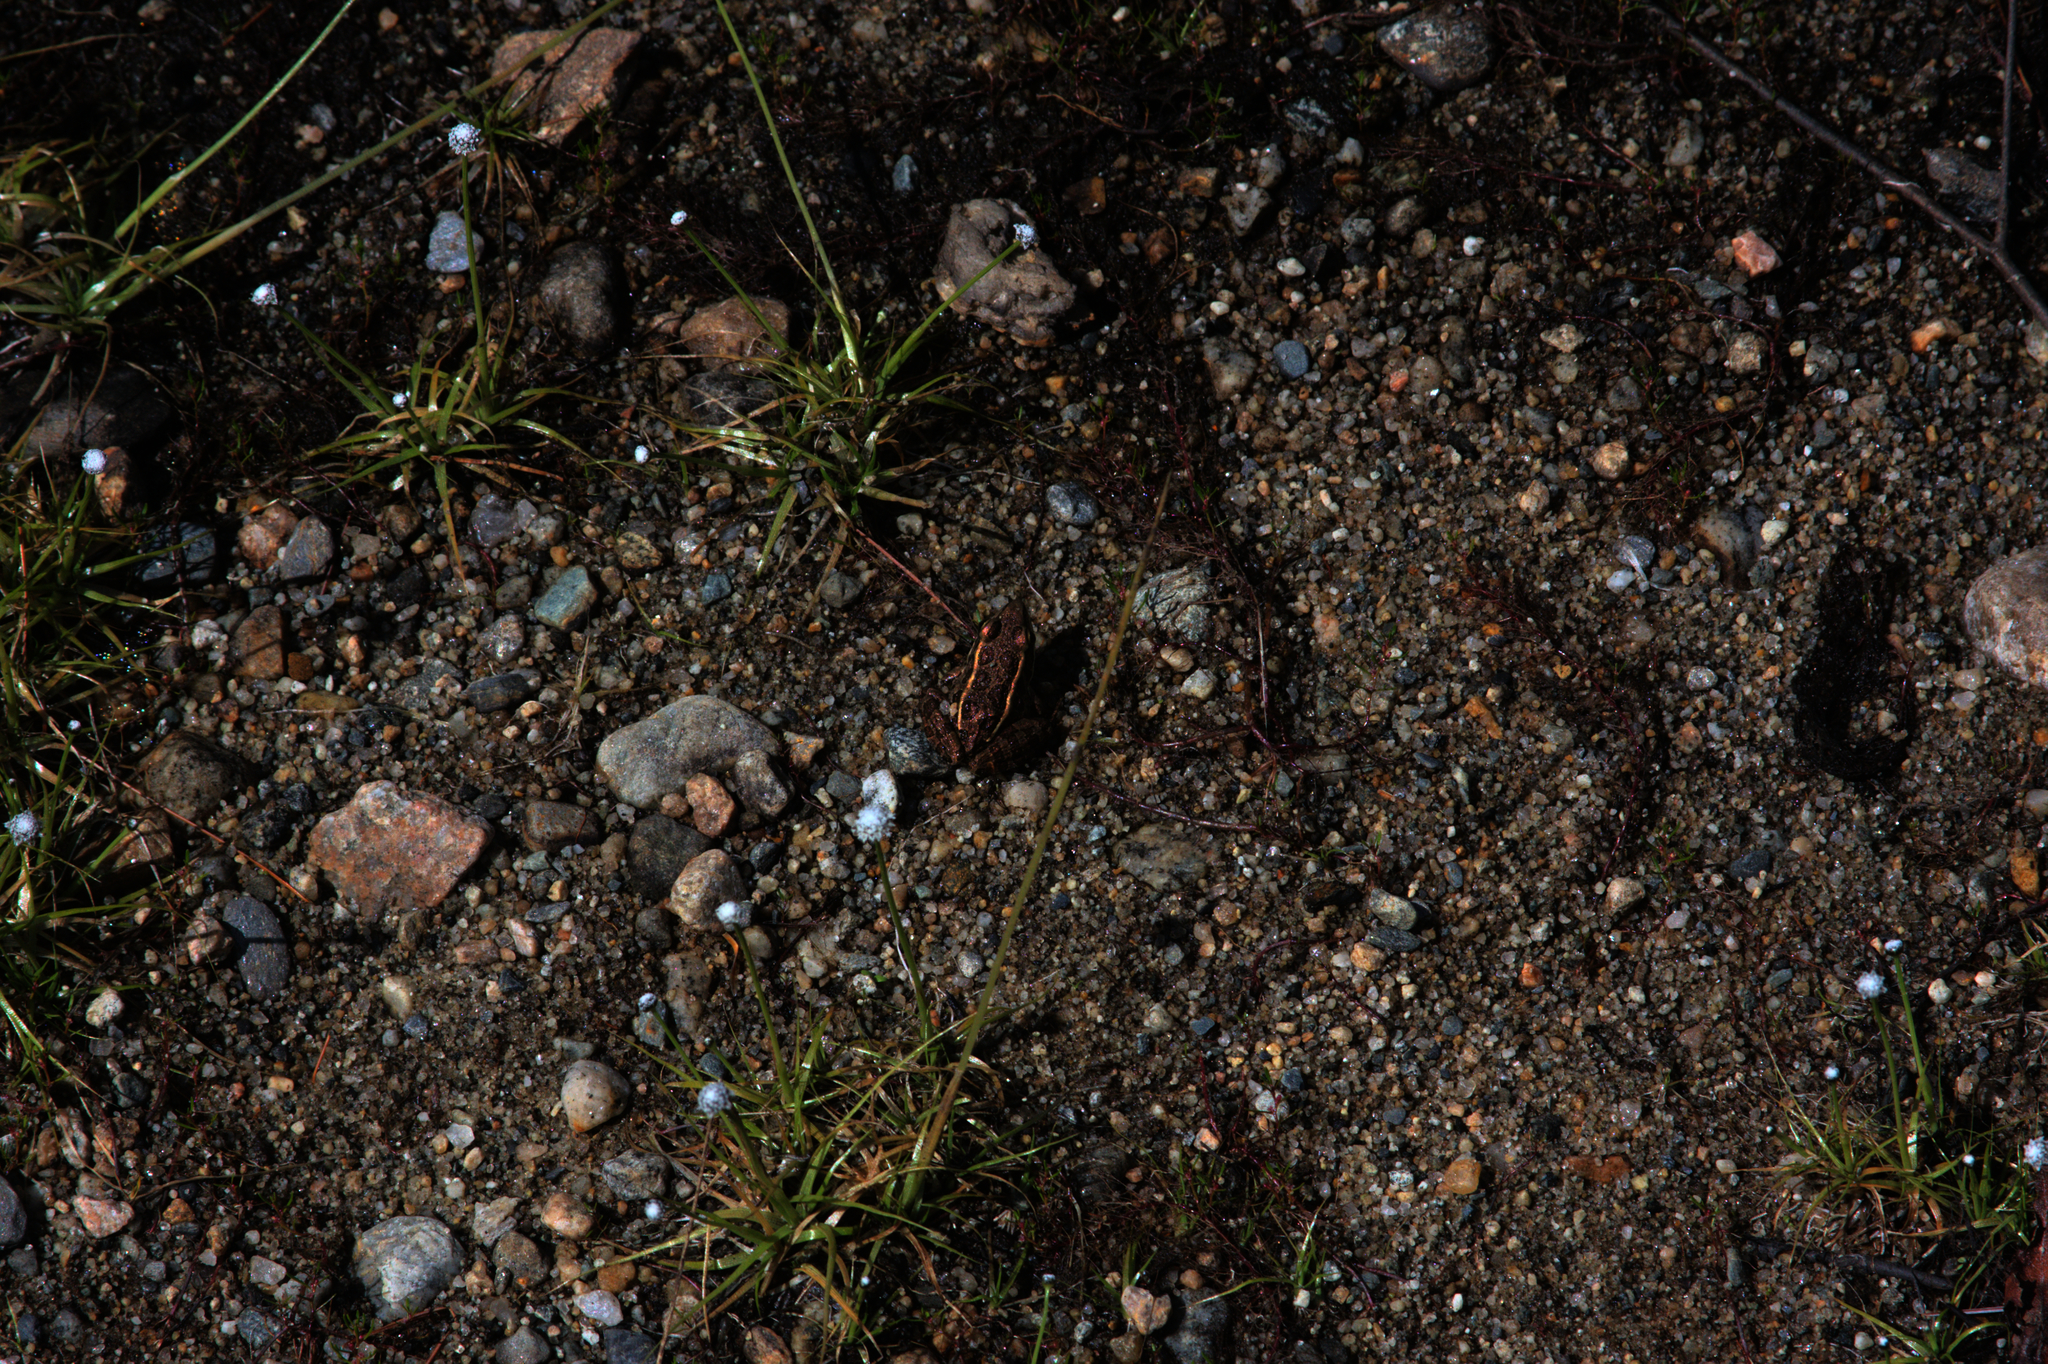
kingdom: Animalia
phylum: Chordata
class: Amphibia
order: Anura
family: Ranidae
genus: Lithobates
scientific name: Lithobates palustris
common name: Pickerel frog
